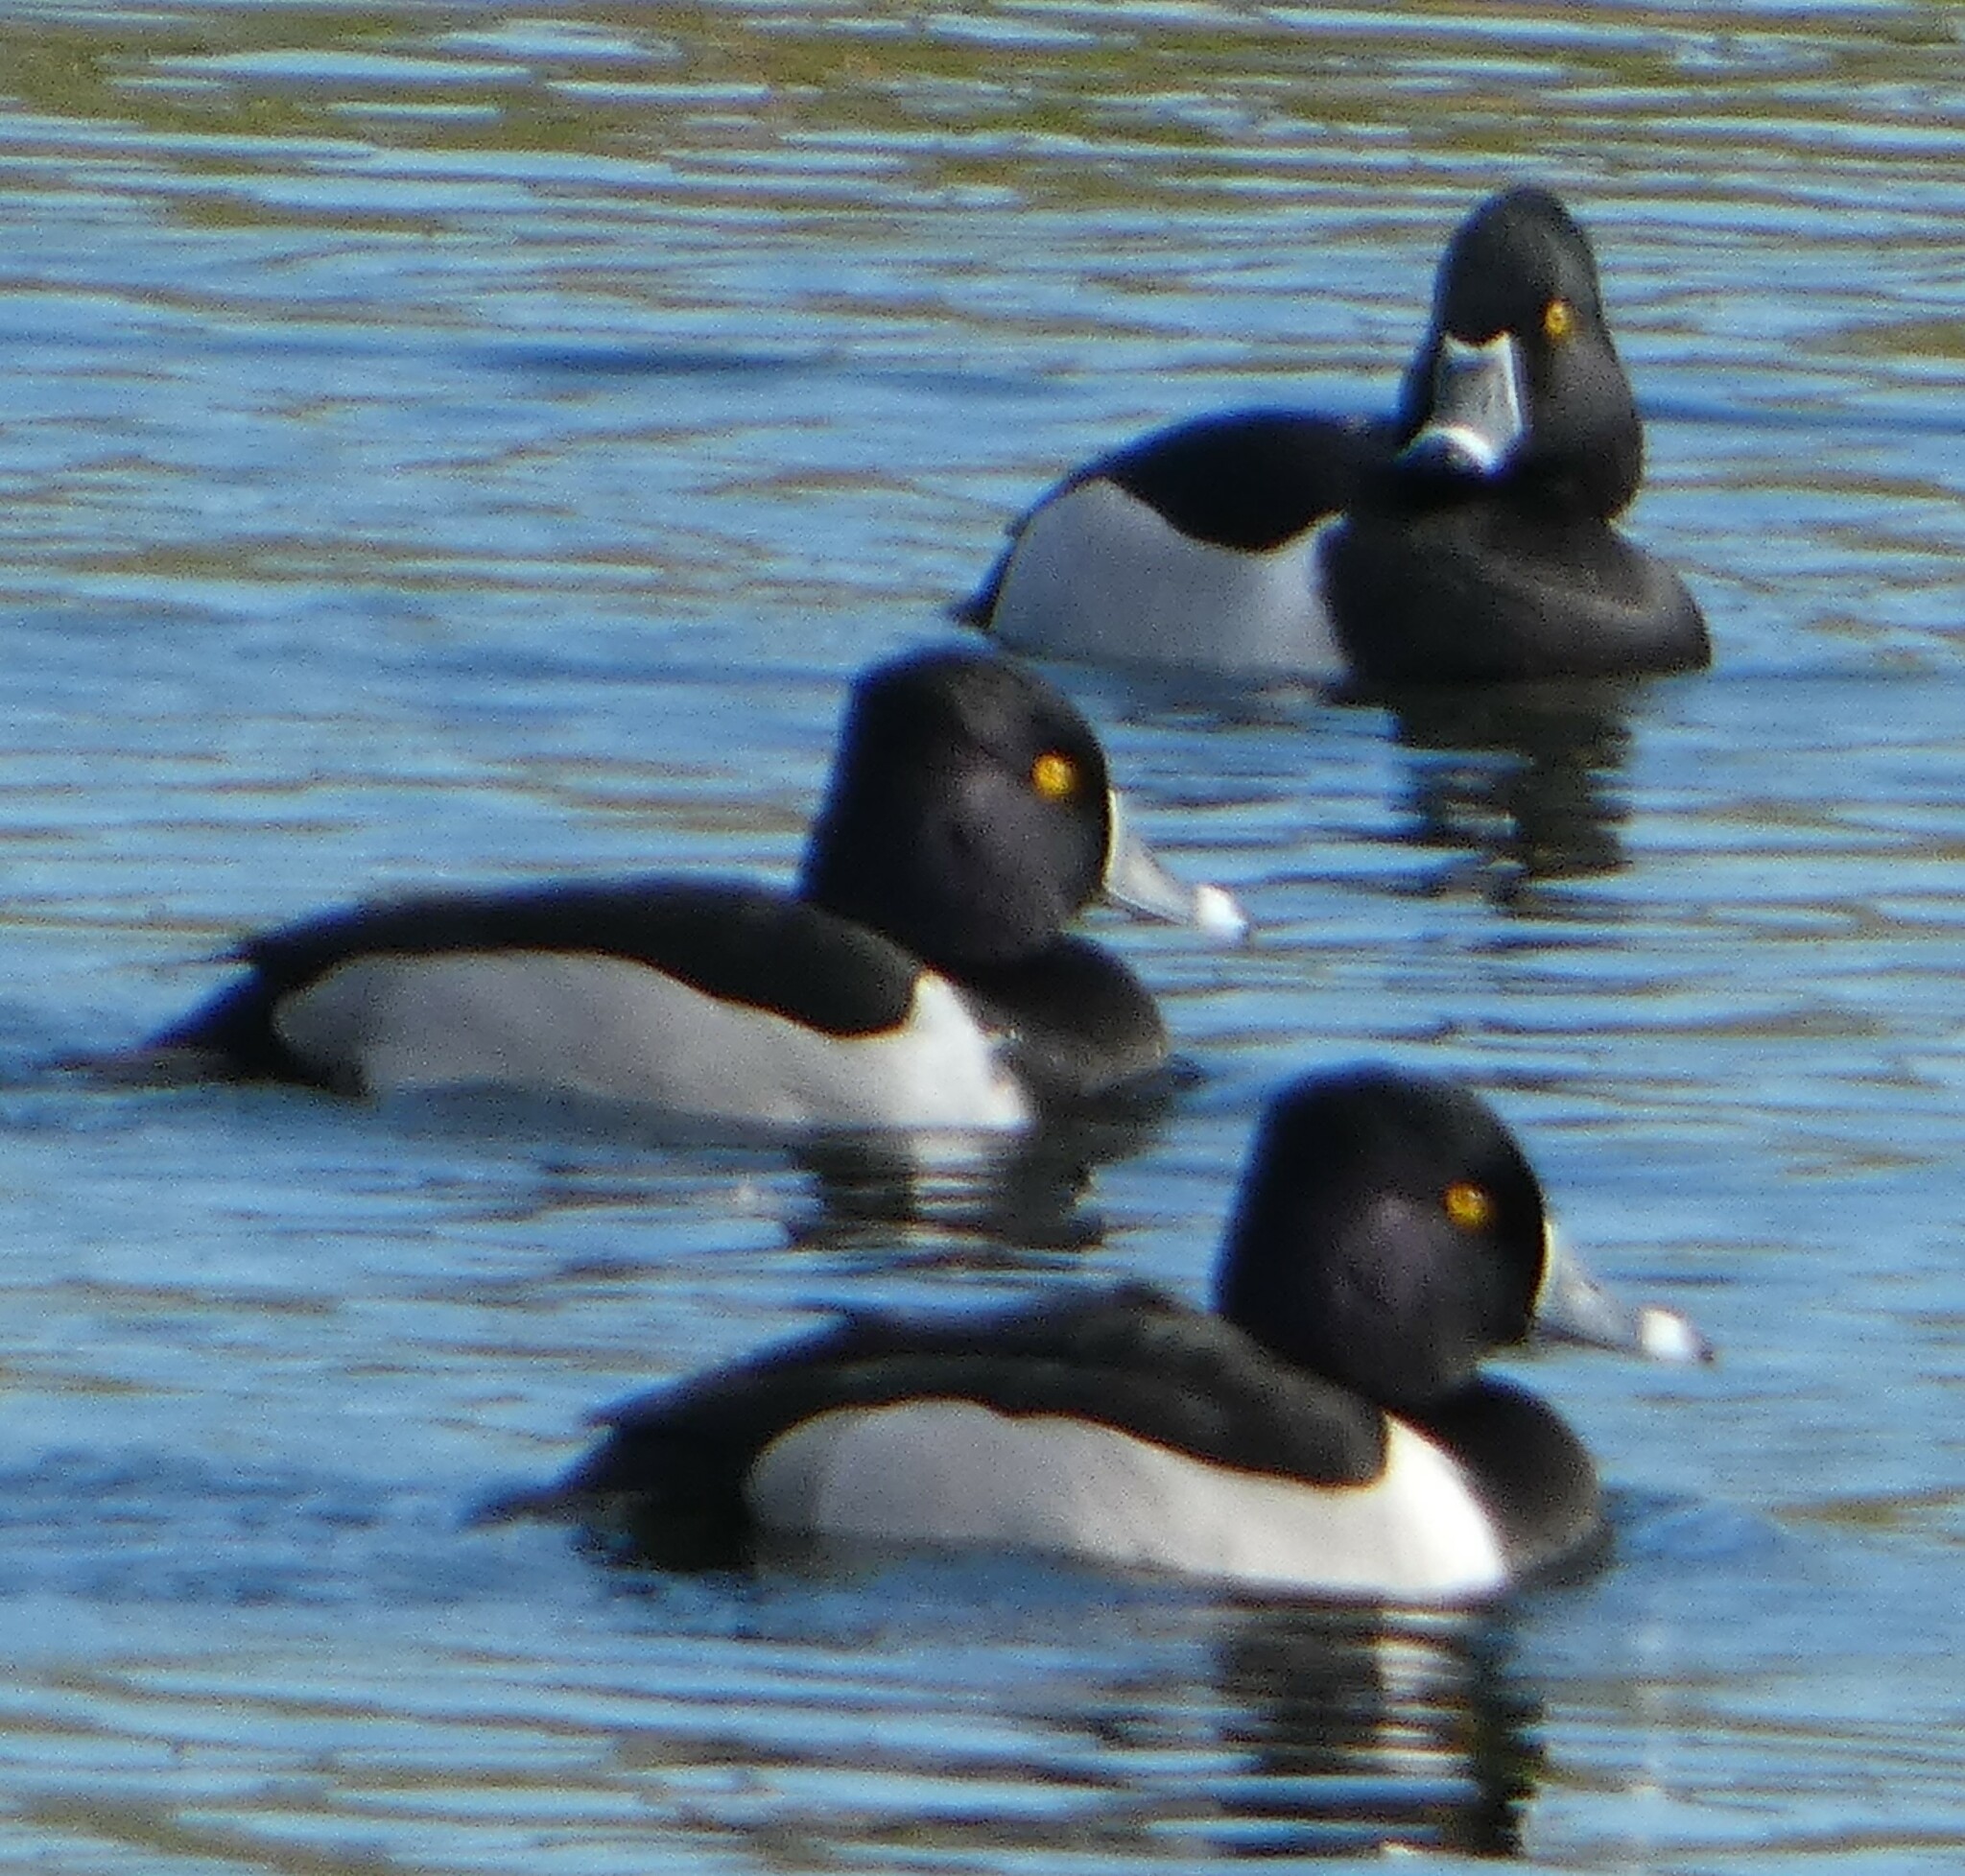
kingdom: Animalia
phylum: Chordata
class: Aves
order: Anseriformes
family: Anatidae
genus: Aythya
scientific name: Aythya collaris
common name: Ring-necked duck
